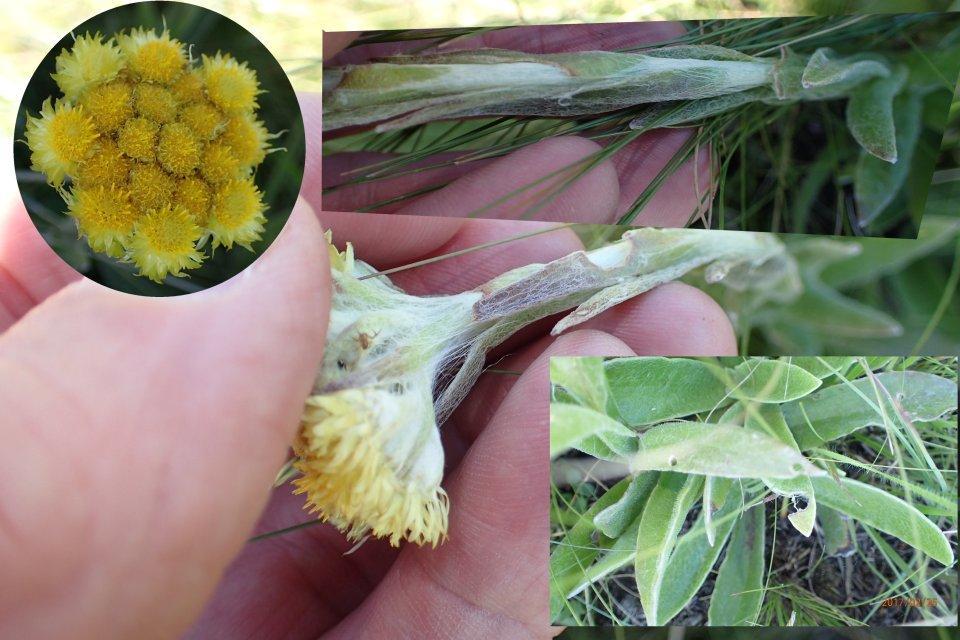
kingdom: Plantae
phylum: Tracheophyta
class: Magnoliopsida
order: Asterales
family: Asteraceae
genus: Helichrysum
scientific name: Helichrysum auriceps
